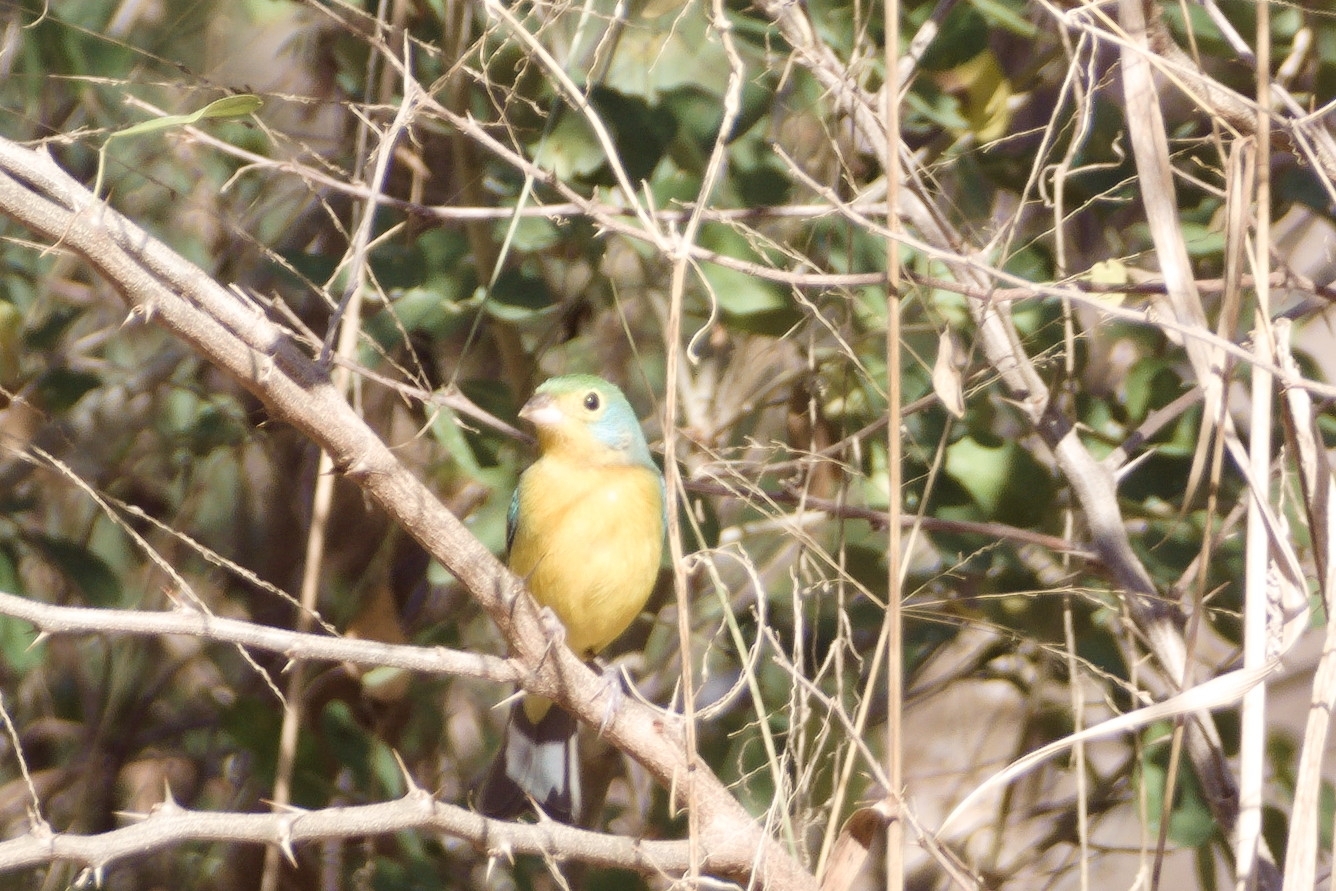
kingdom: Animalia
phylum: Chordata
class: Aves
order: Passeriformes
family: Cardinalidae
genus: Passerina
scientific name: Passerina leclancherii
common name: Orange-breasted bunting
